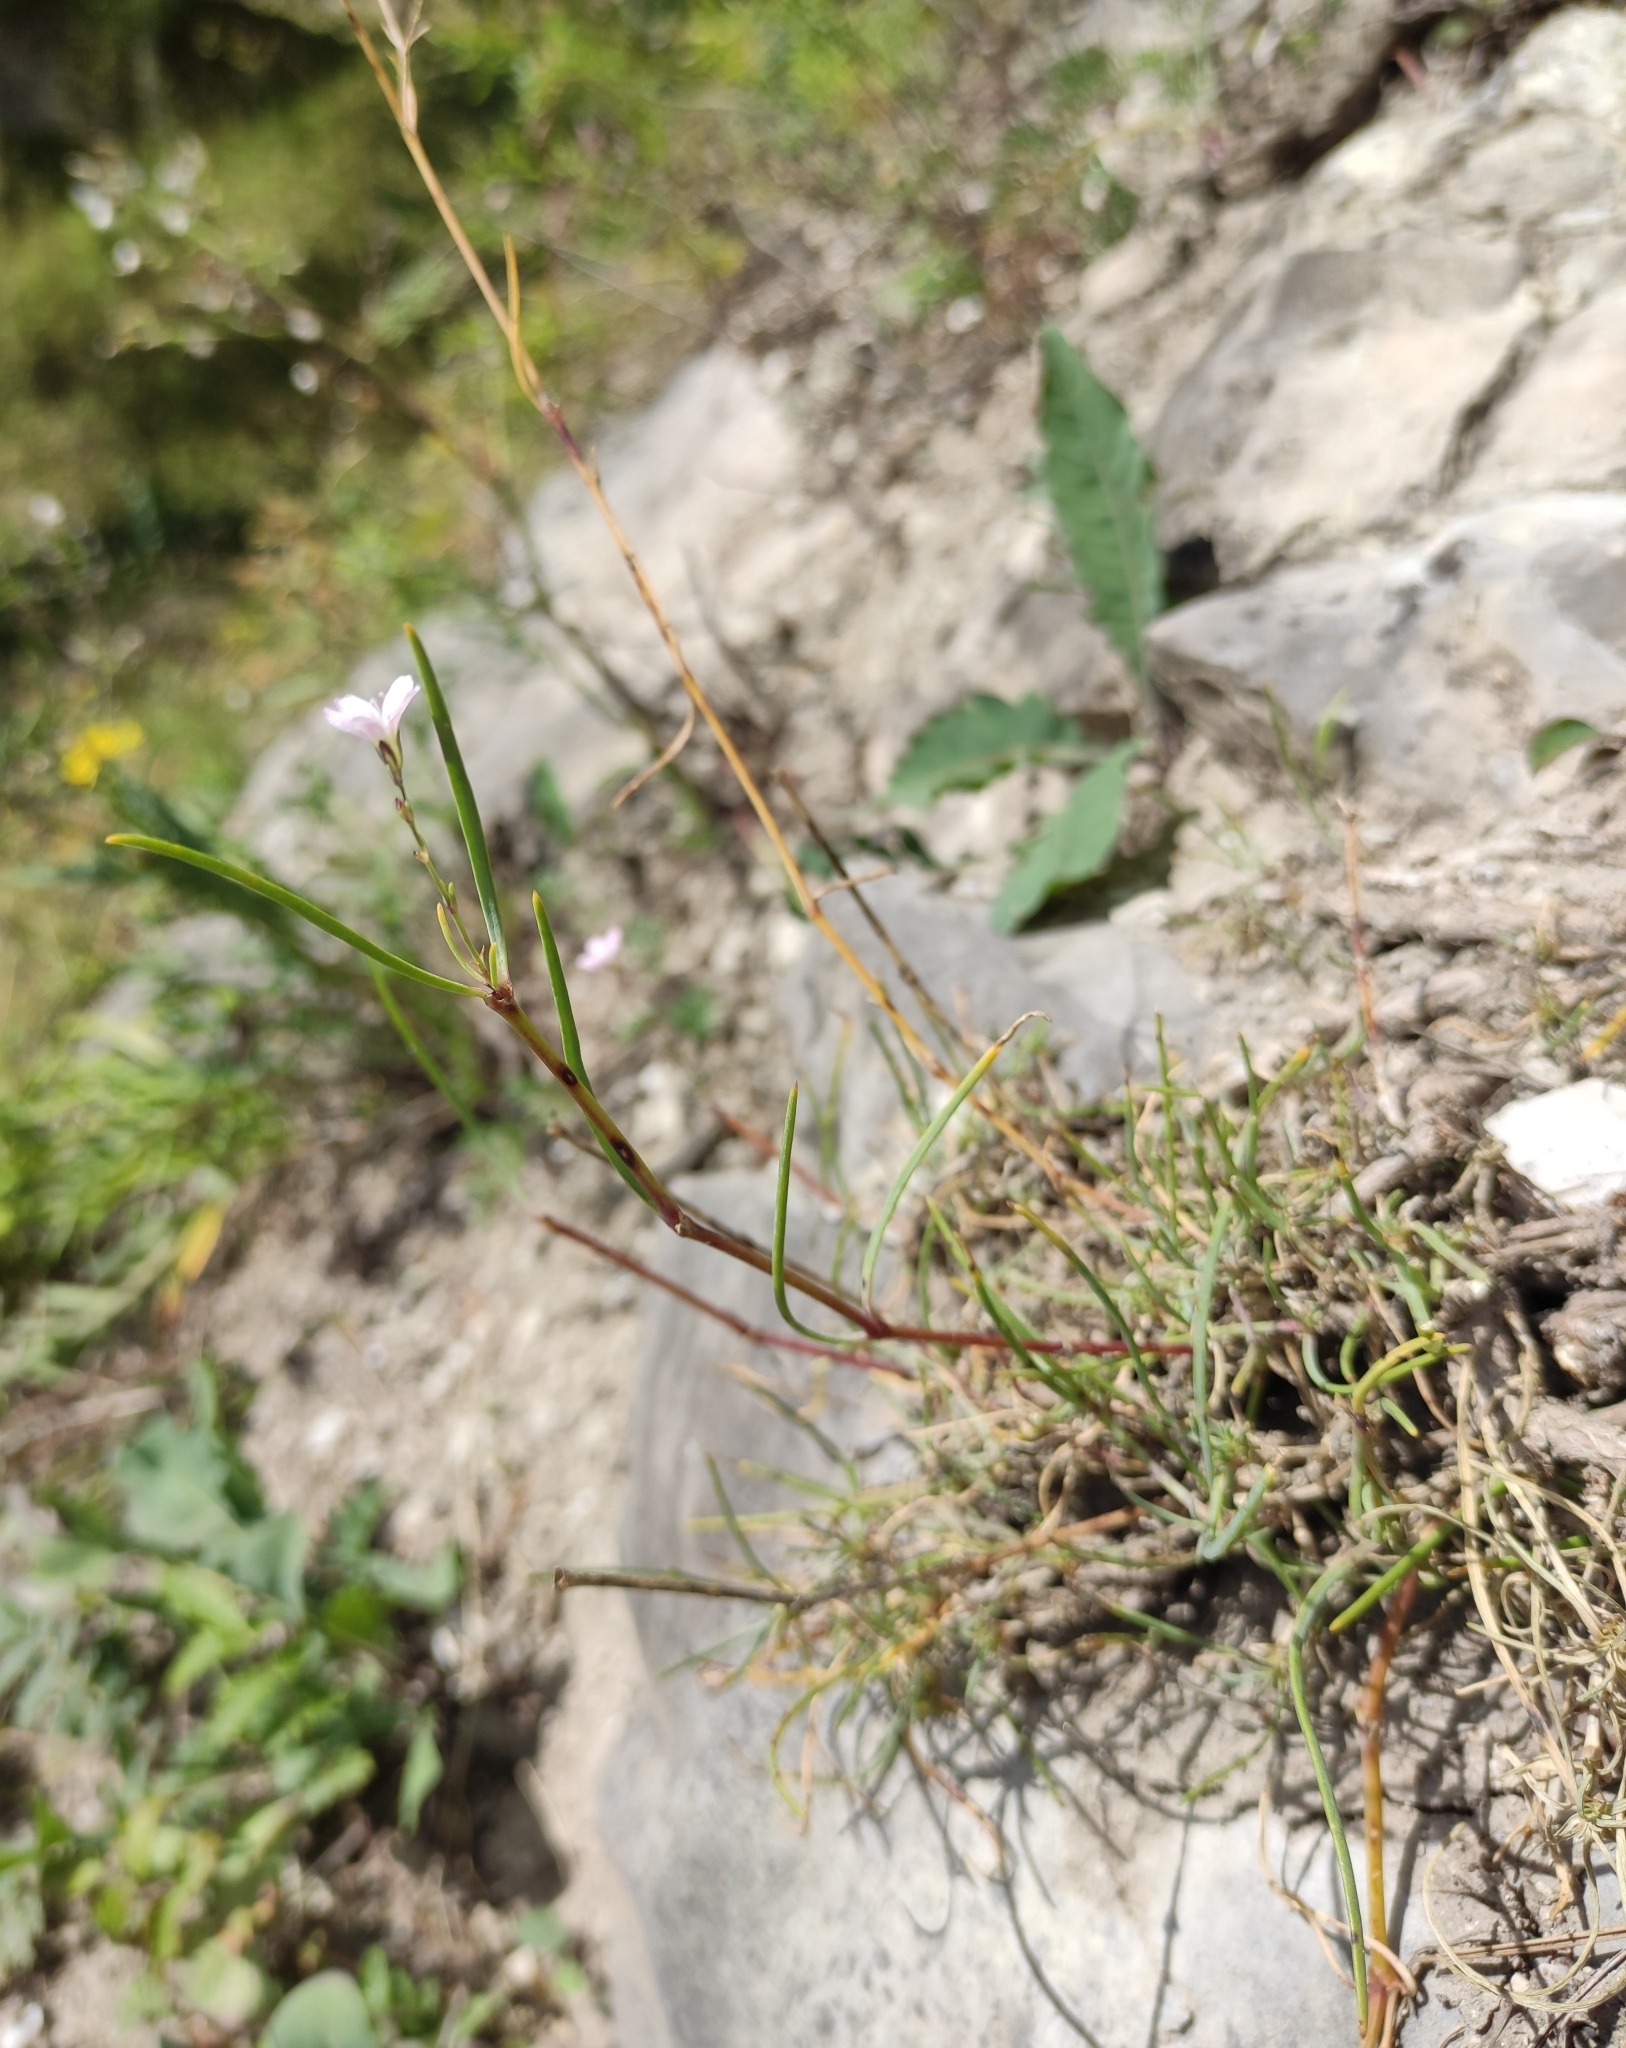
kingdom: Plantae
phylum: Tracheophyta
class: Magnoliopsida
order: Caryophyllales
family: Caryophyllaceae
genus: Gypsophila
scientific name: Gypsophila patrinii
